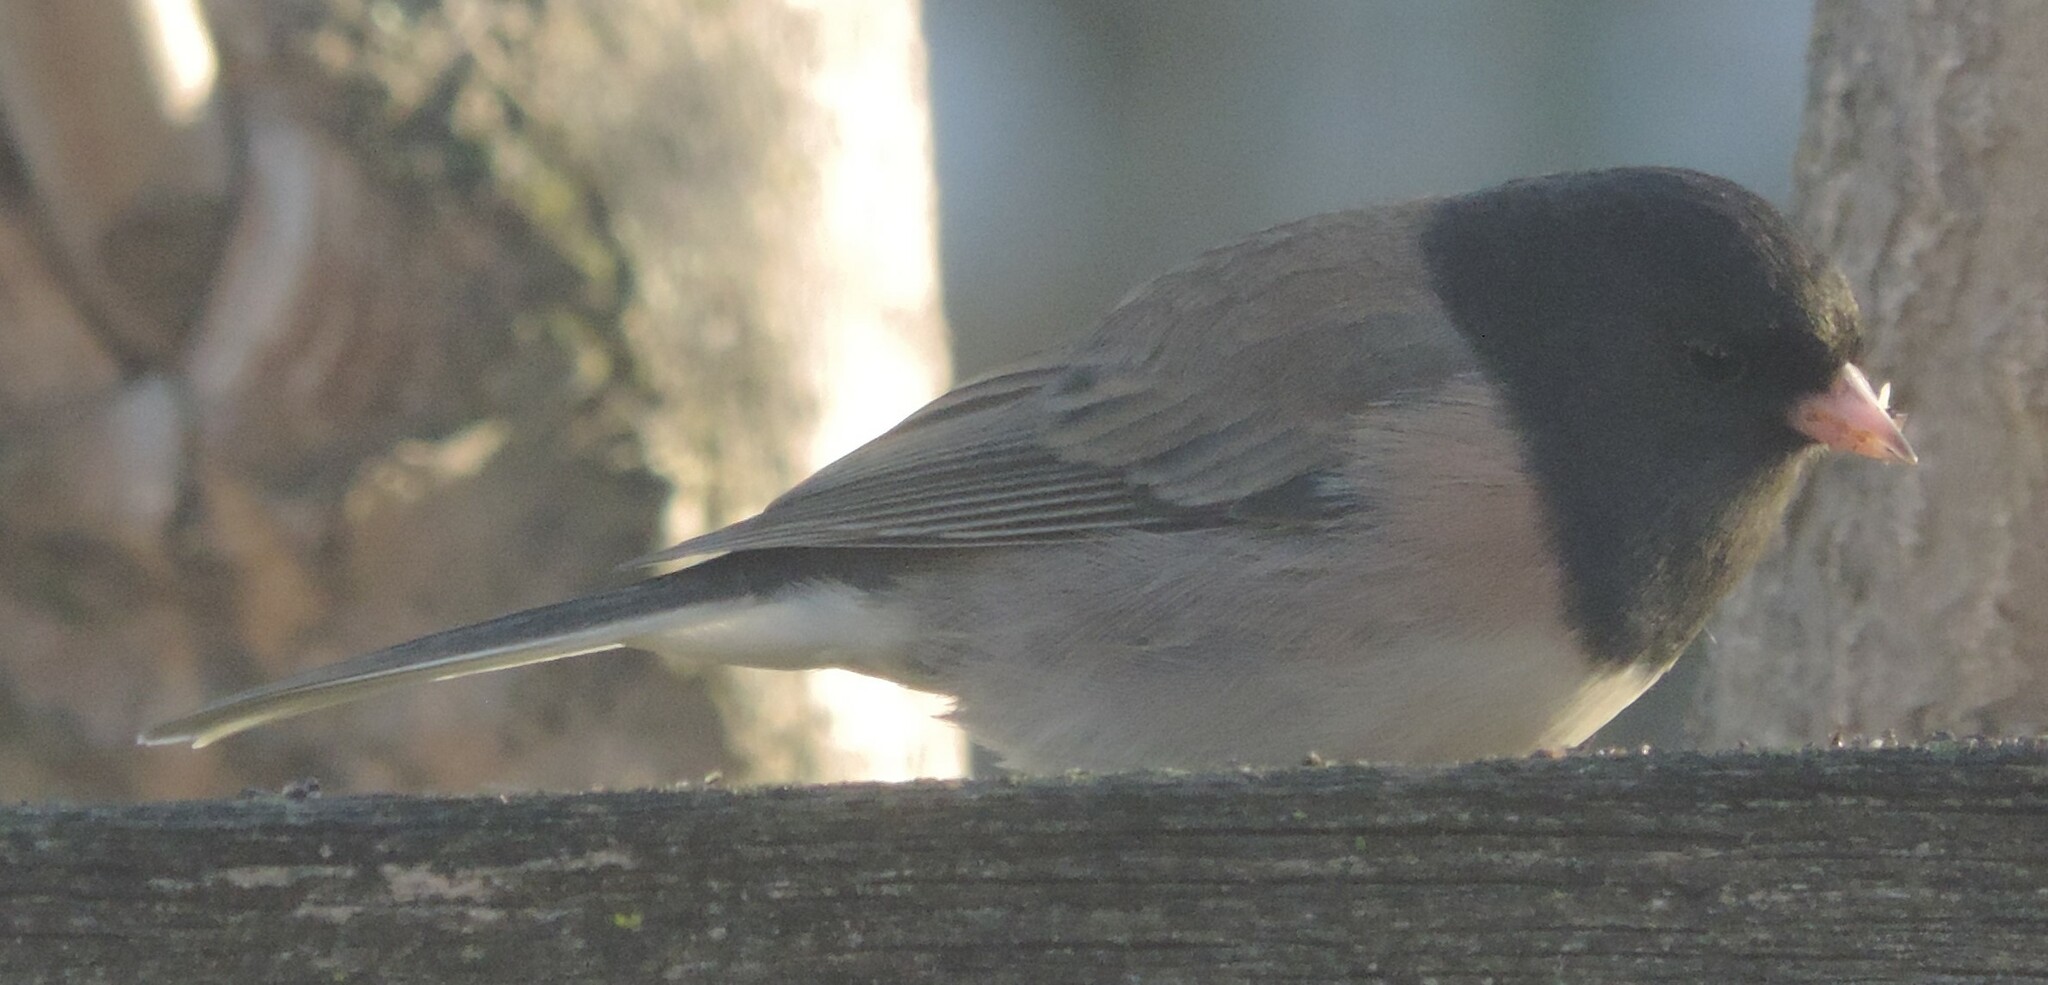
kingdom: Animalia
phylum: Chordata
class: Aves
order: Passeriformes
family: Passerellidae
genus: Junco
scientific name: Junco hyemalis
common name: Dark-eyed junco
